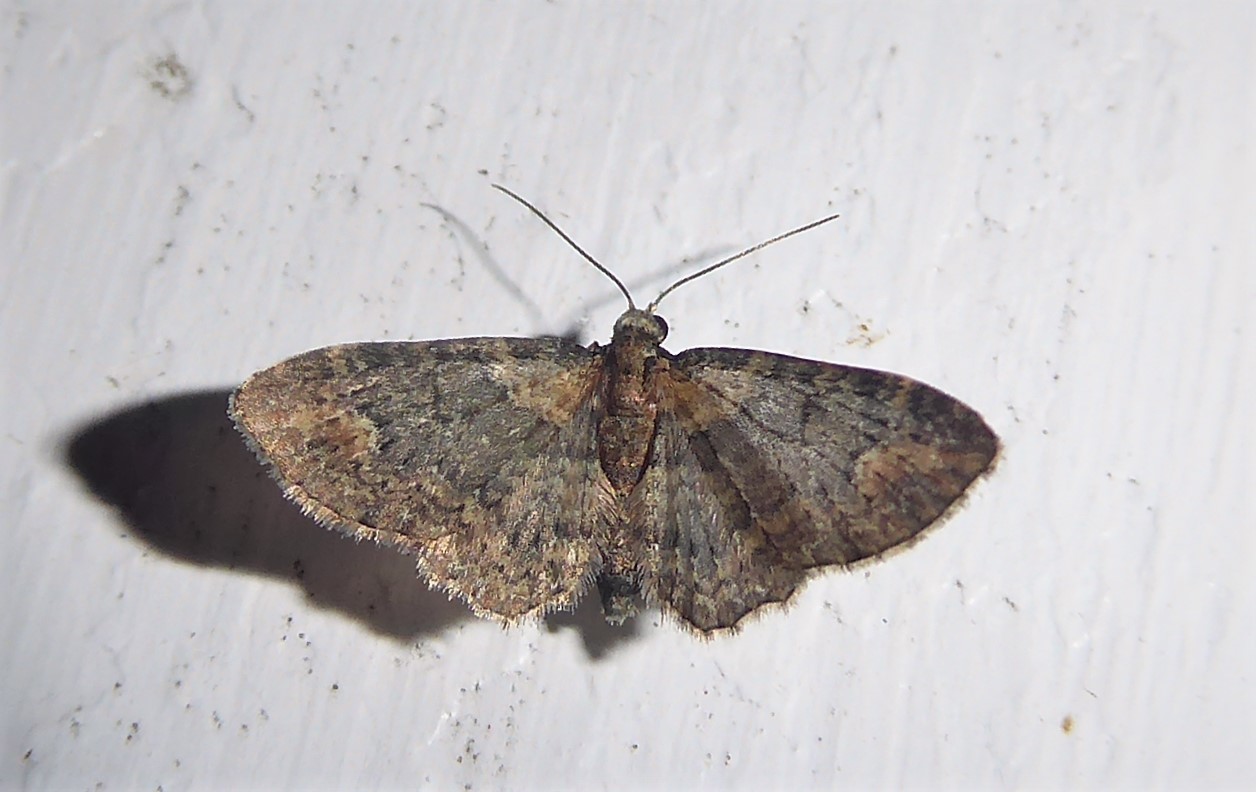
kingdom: Animalia
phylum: Arthropoda
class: Insecta
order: Lepidoptera
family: Geometridae
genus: Pasiphilodes
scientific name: Pasiphilodes testulata
